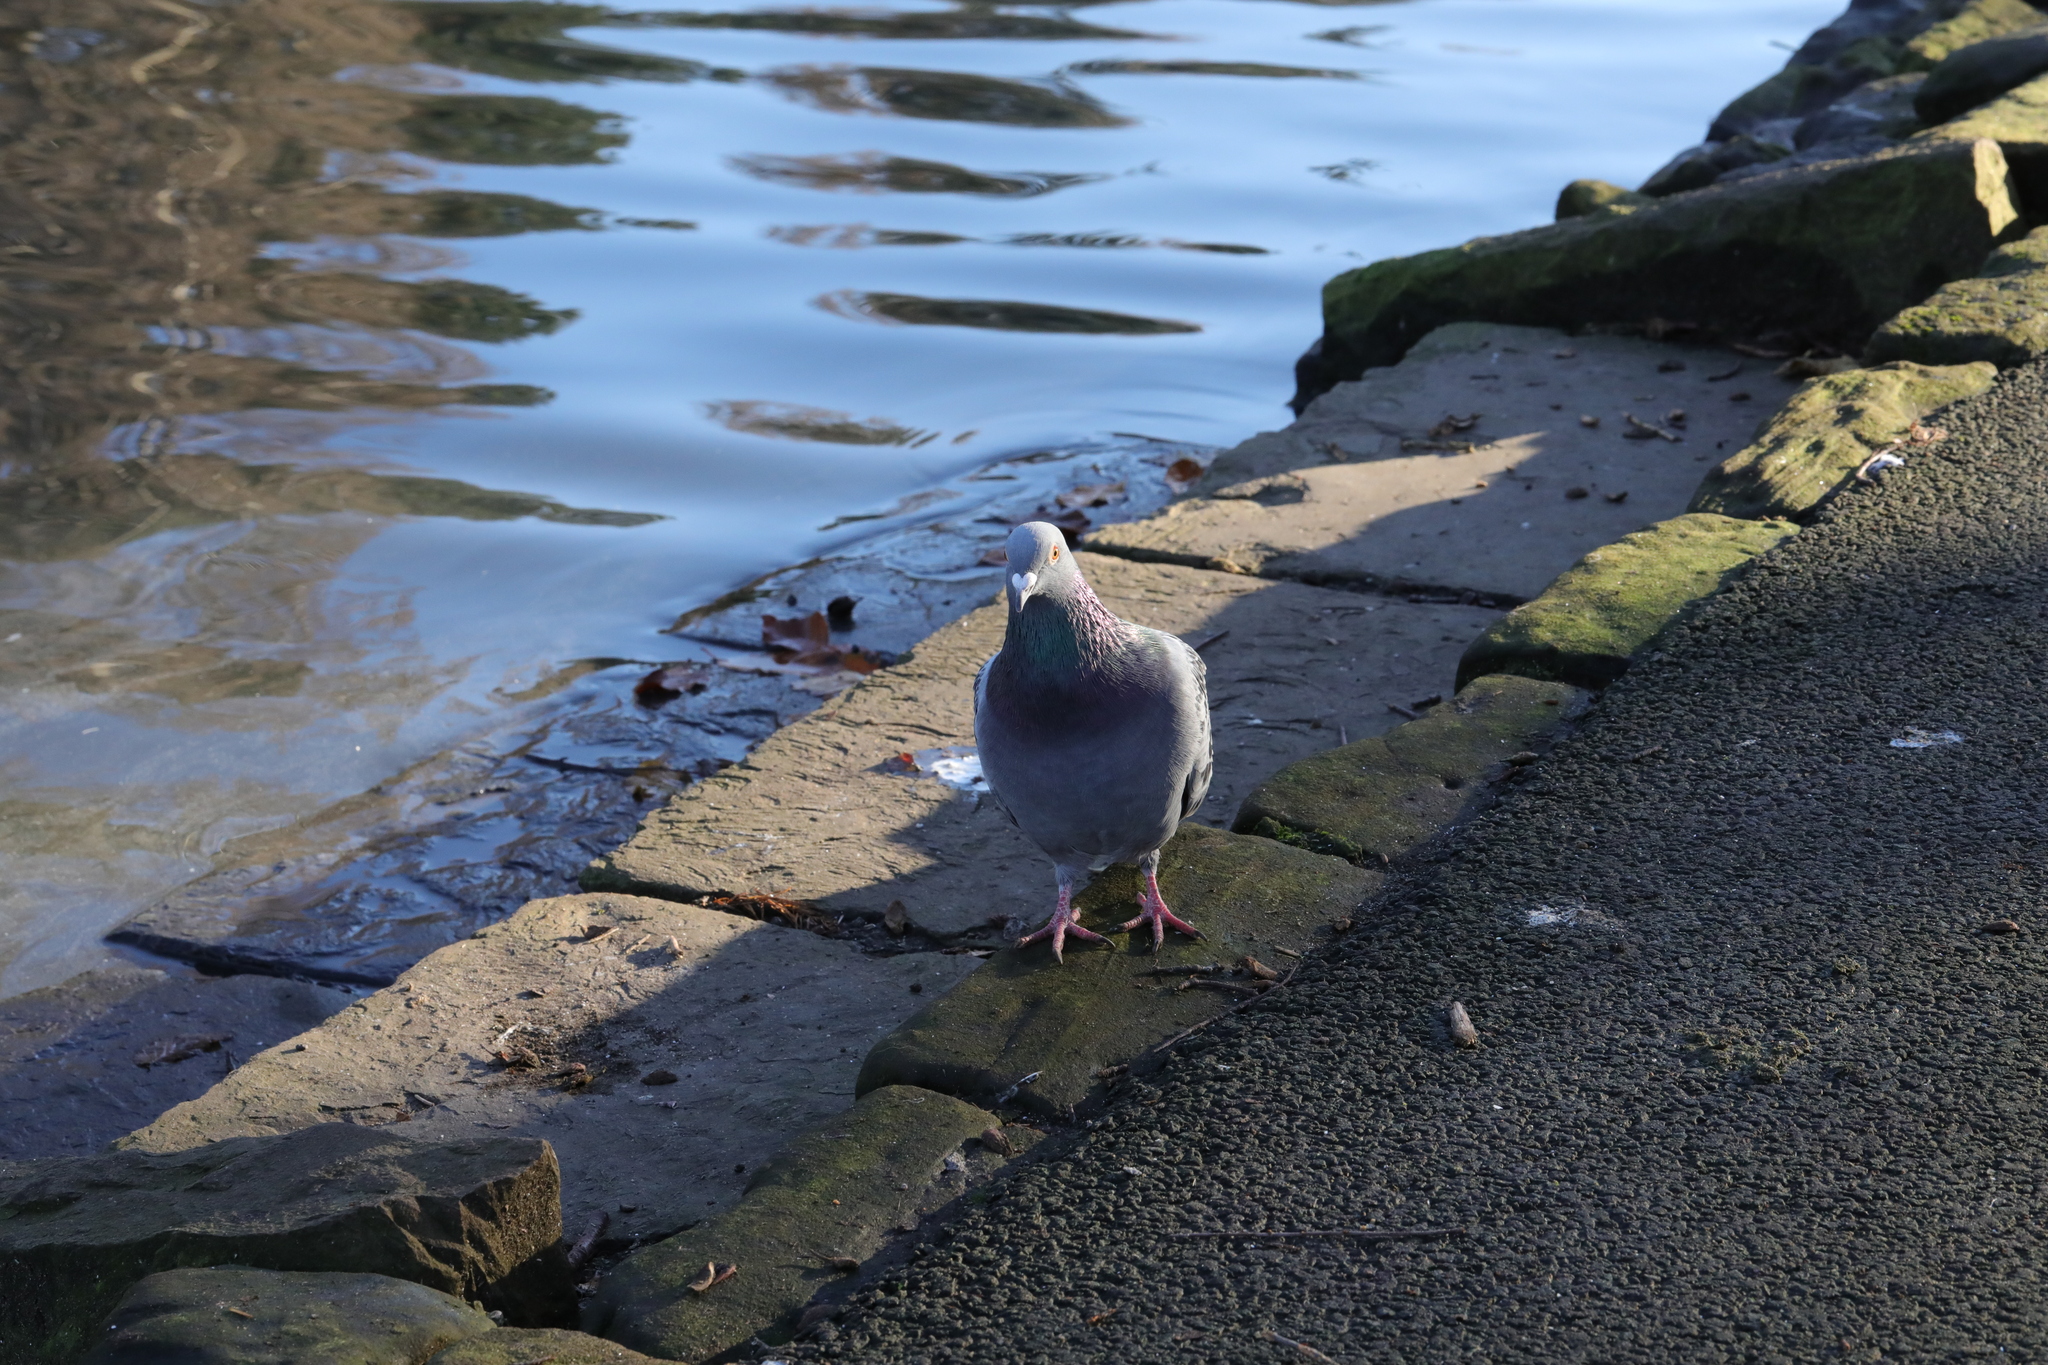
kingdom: Animalia
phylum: Chordata
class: Aves
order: Columbiformes
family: Columbidae
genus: Columba
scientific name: Columba livia
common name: Rock pigeon
